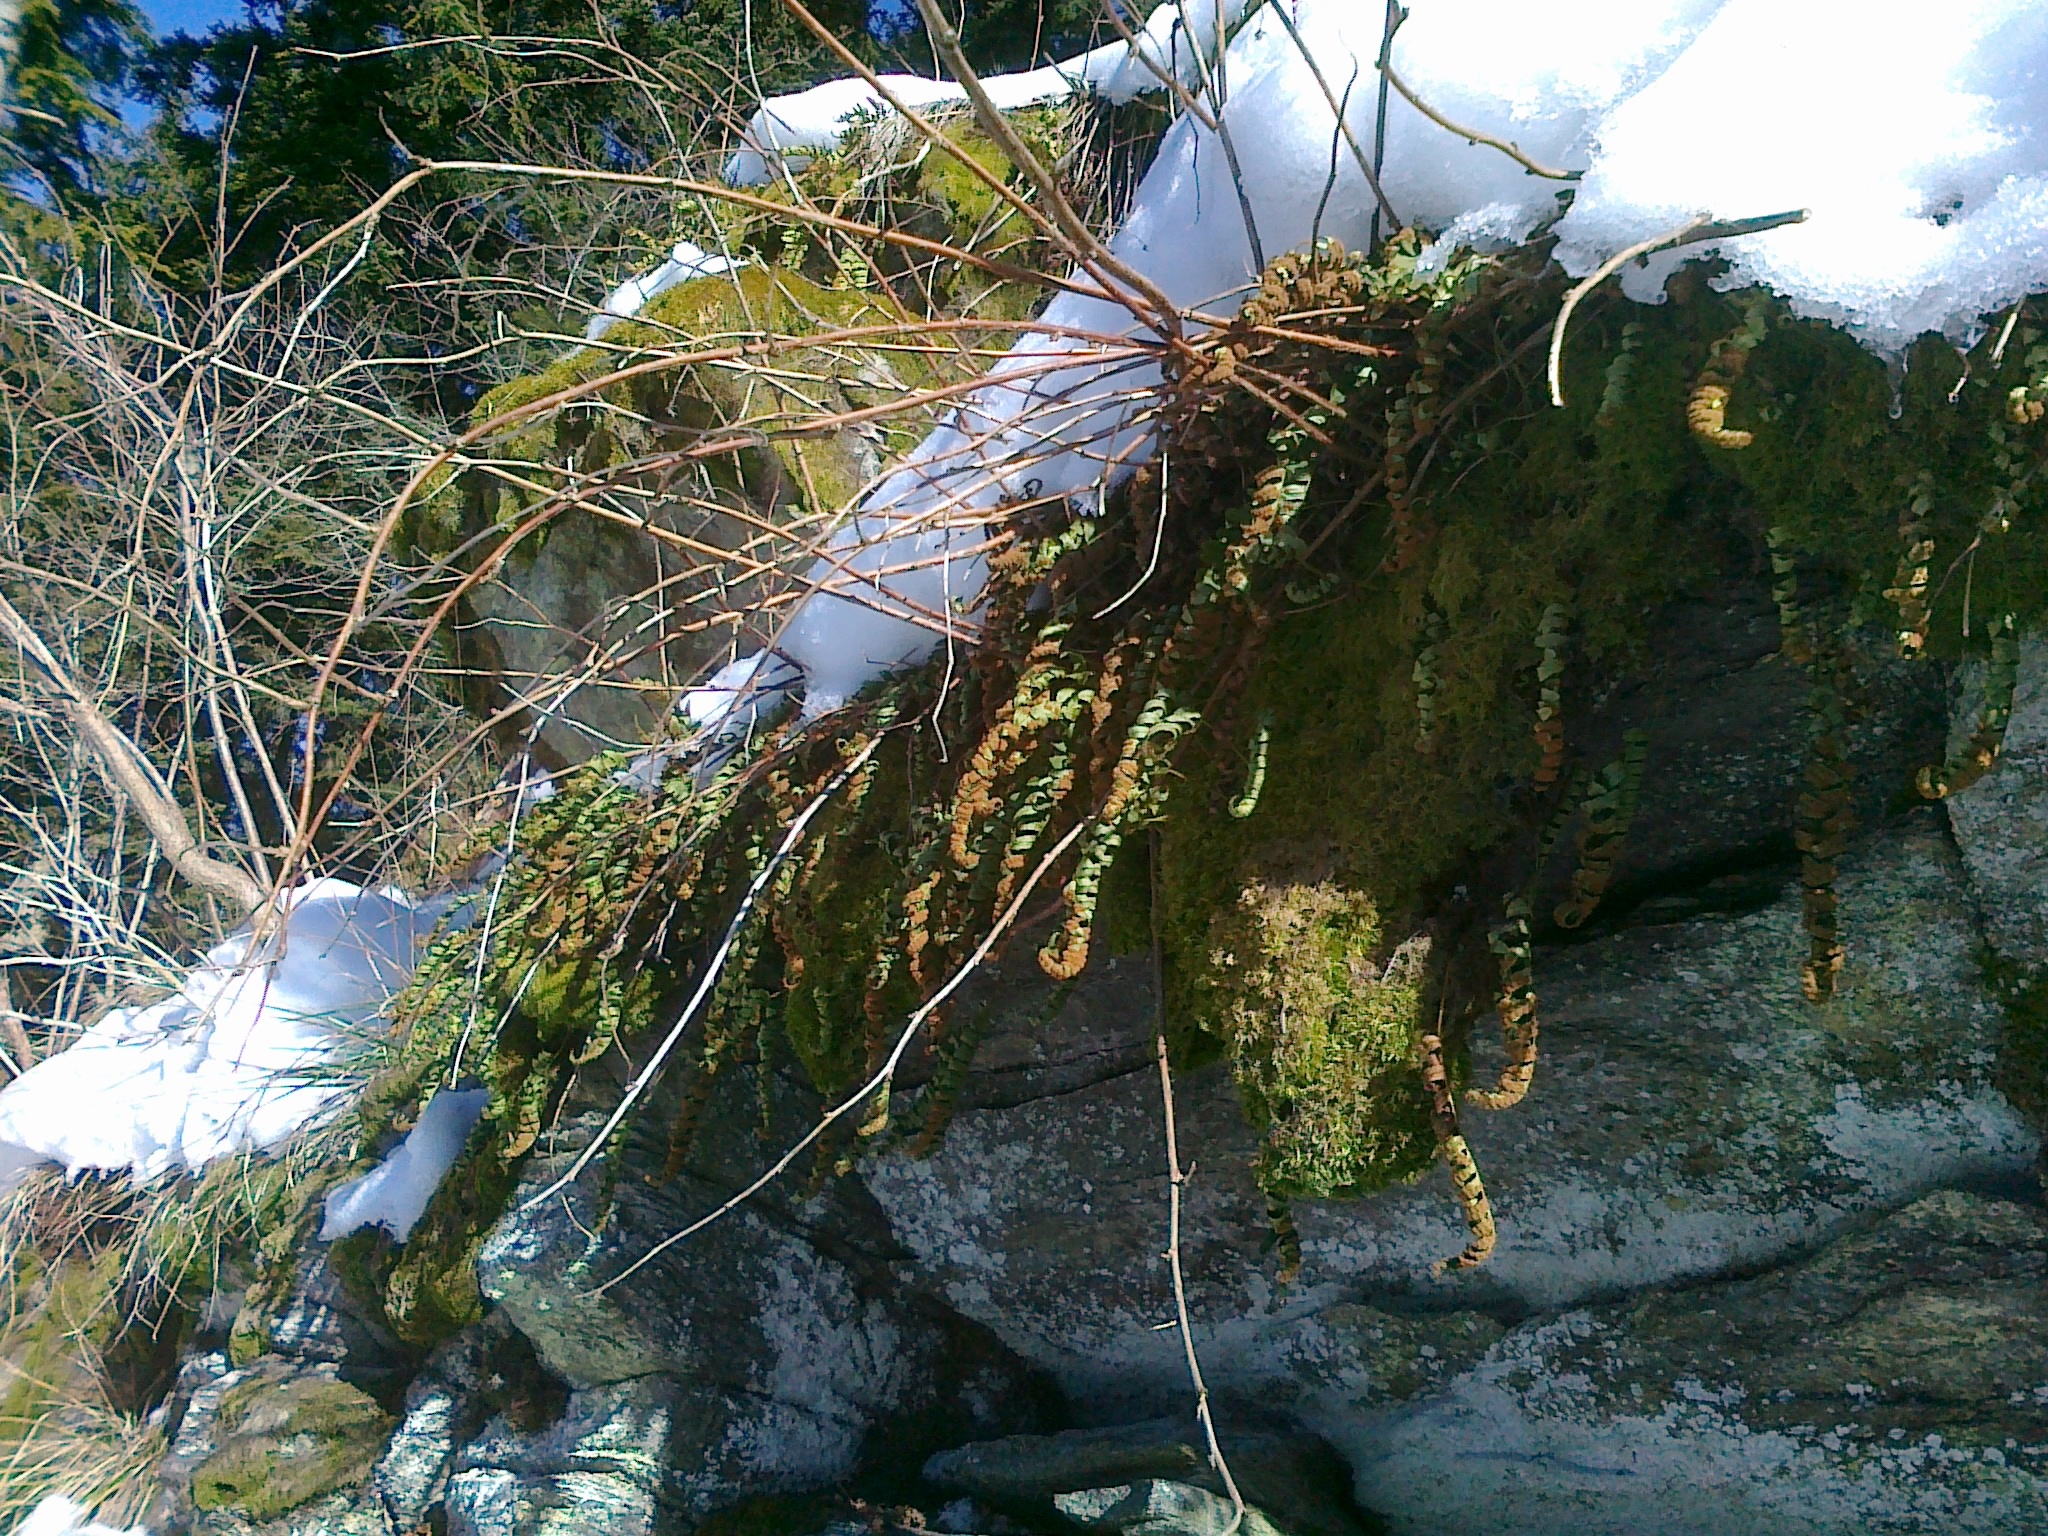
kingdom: Plantae
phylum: Tracheophyta
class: Polypodiopsida
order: Polypodiales
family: Polypodiaceae
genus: Polypodium
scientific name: Polypodium vulgare
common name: Common polypody
